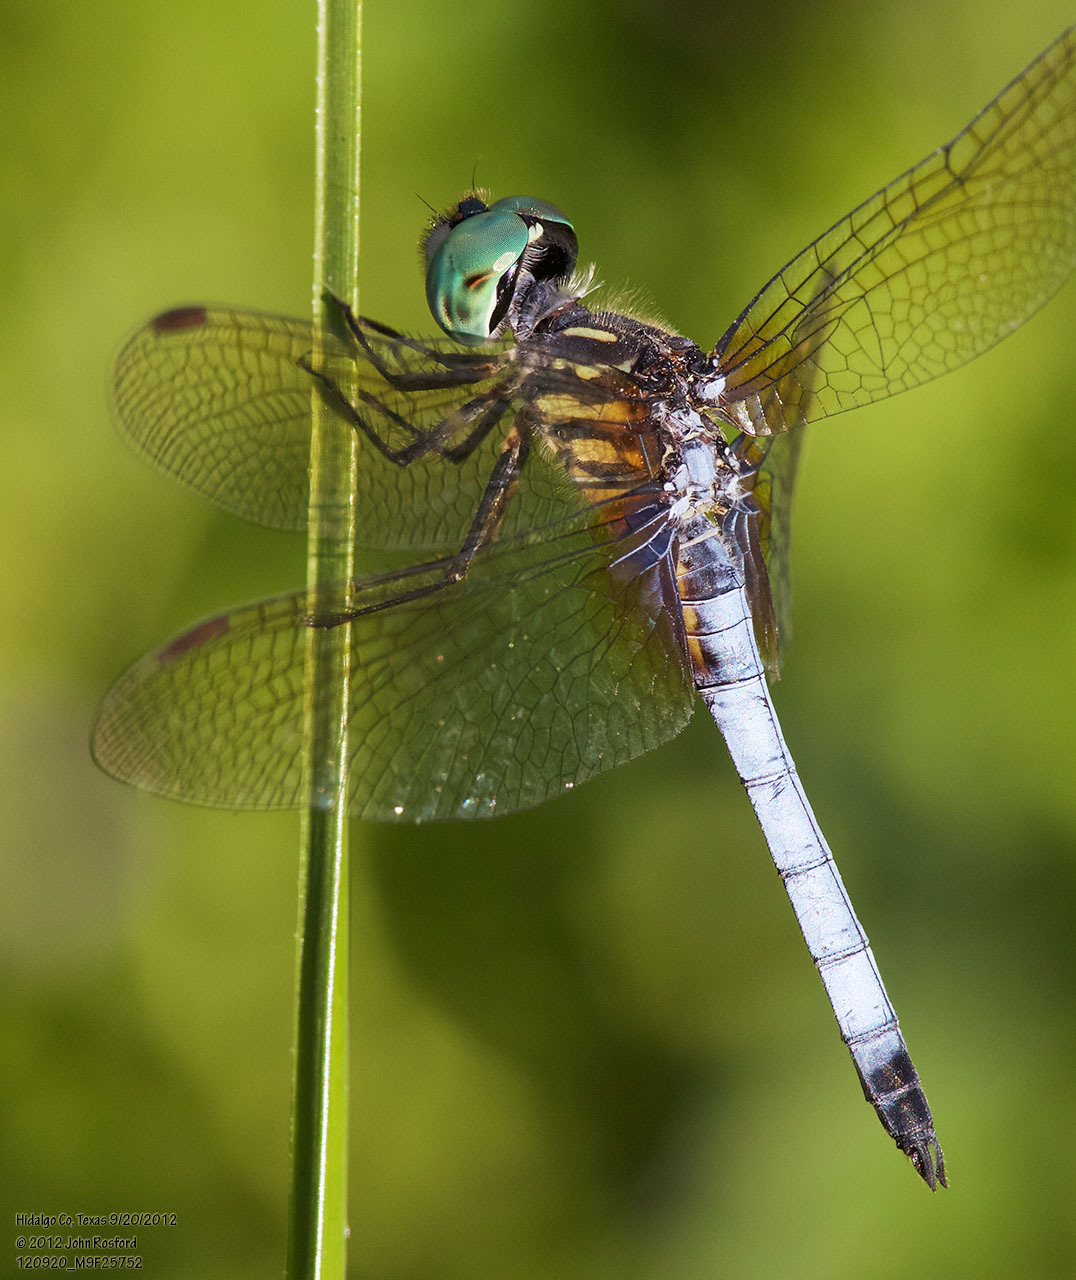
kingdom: Animalia
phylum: Arthropoda
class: Insecta
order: Odonata
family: Libellulidae
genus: Pachydiplax
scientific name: Pachydiplax longipennis
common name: Blue dasher
